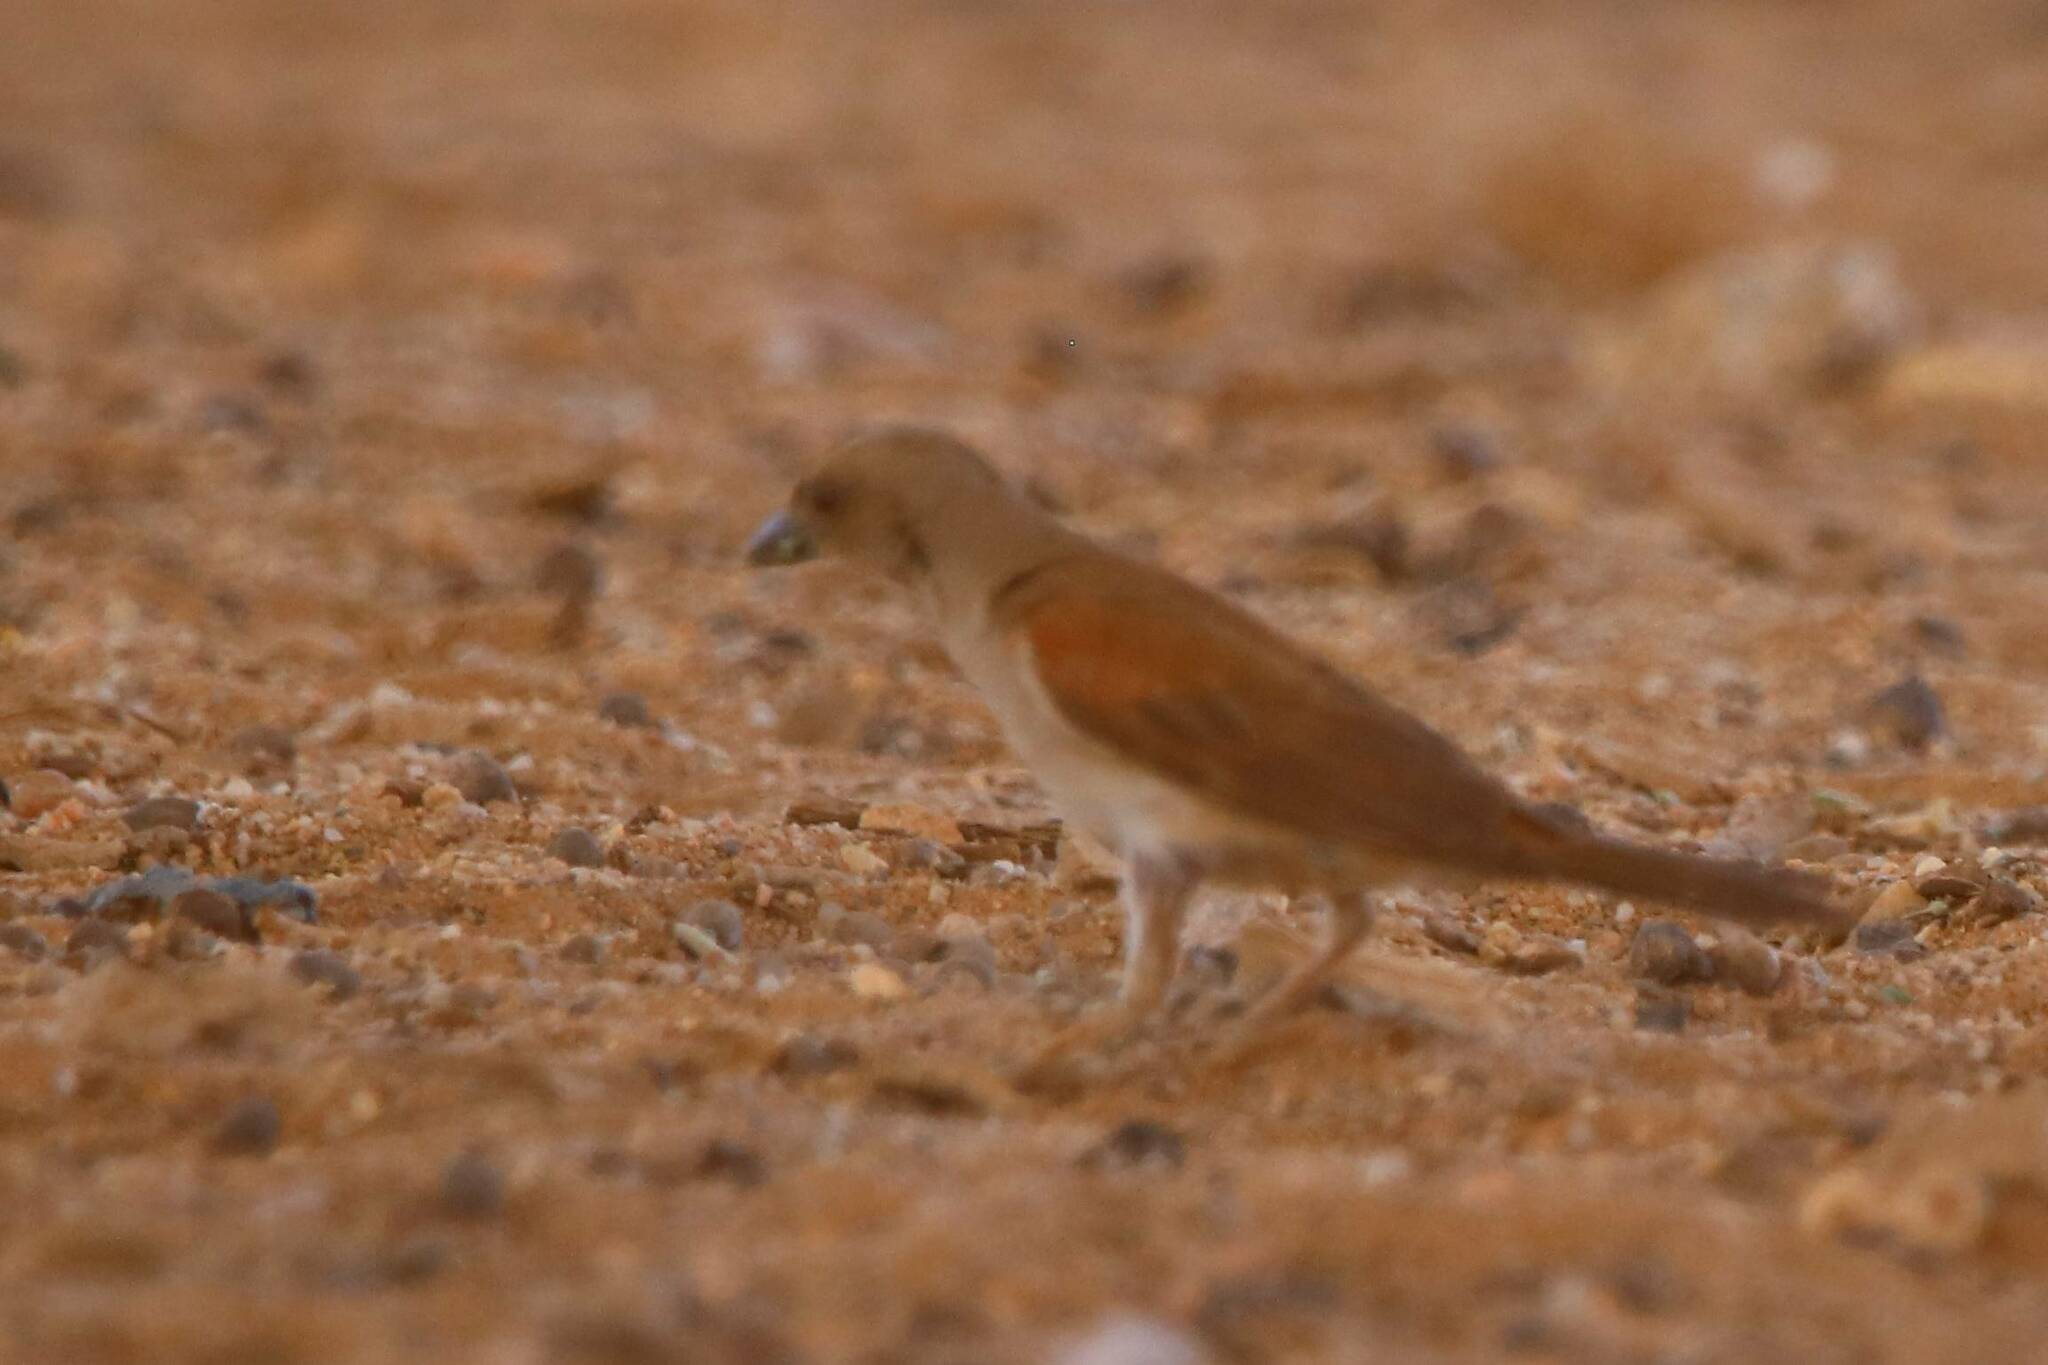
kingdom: Animalia
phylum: Chordata
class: Aves
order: Passeriformes
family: Passeridae
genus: Passer
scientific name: Passer griseus
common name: Northern grey-headed sparrow
